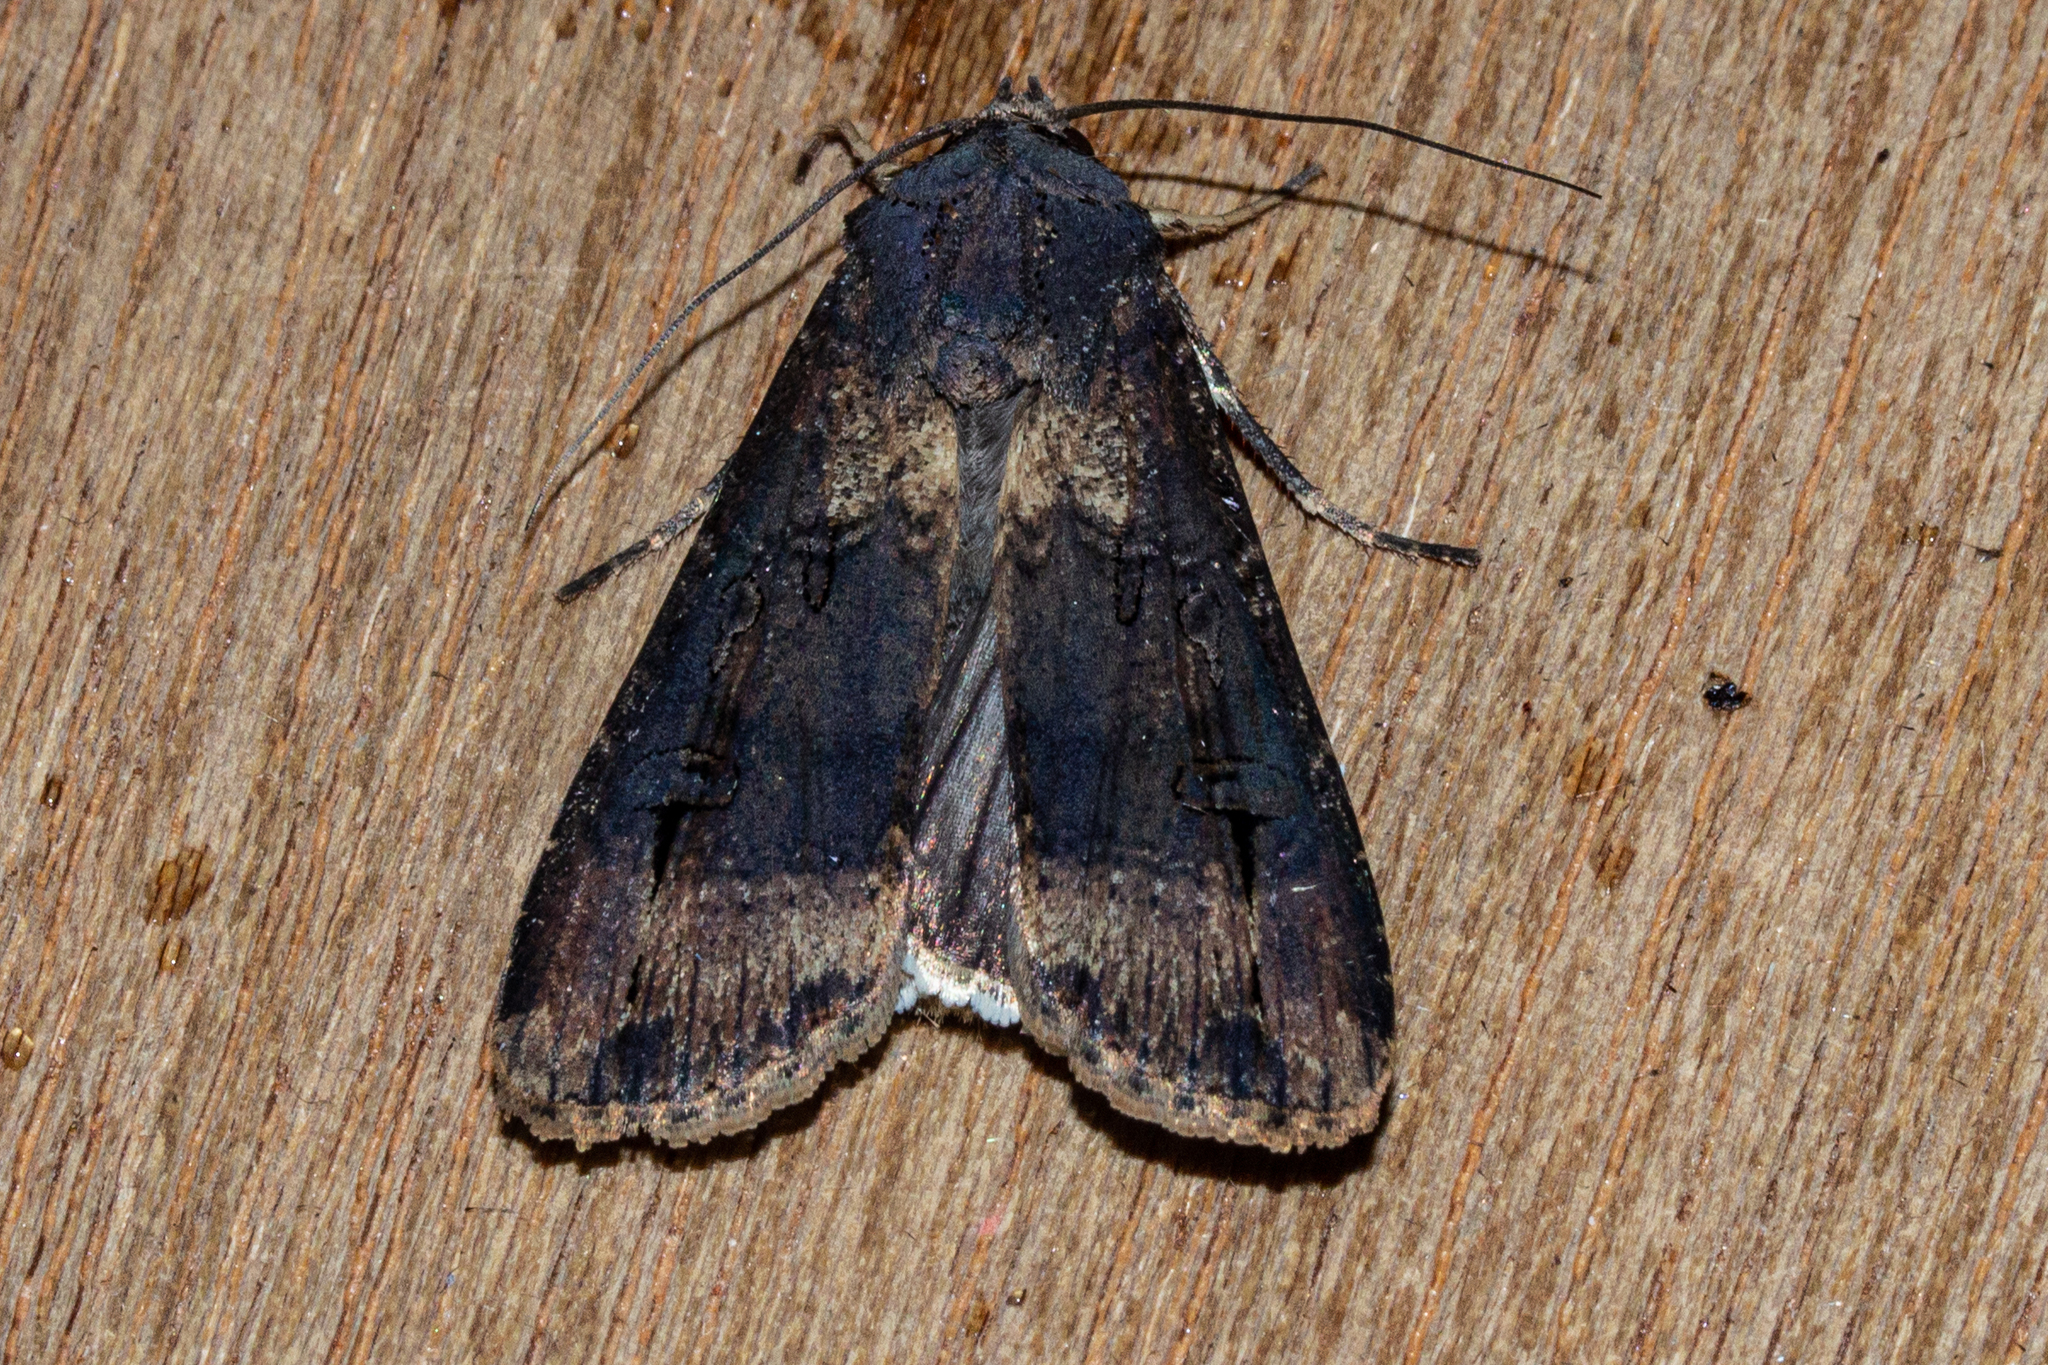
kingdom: Animalia
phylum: Arthropoda
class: Insecta
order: Lepidoptera
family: Noctuidae
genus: Agrotis
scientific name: Agrotis ipsilon
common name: Dark sword-grass
